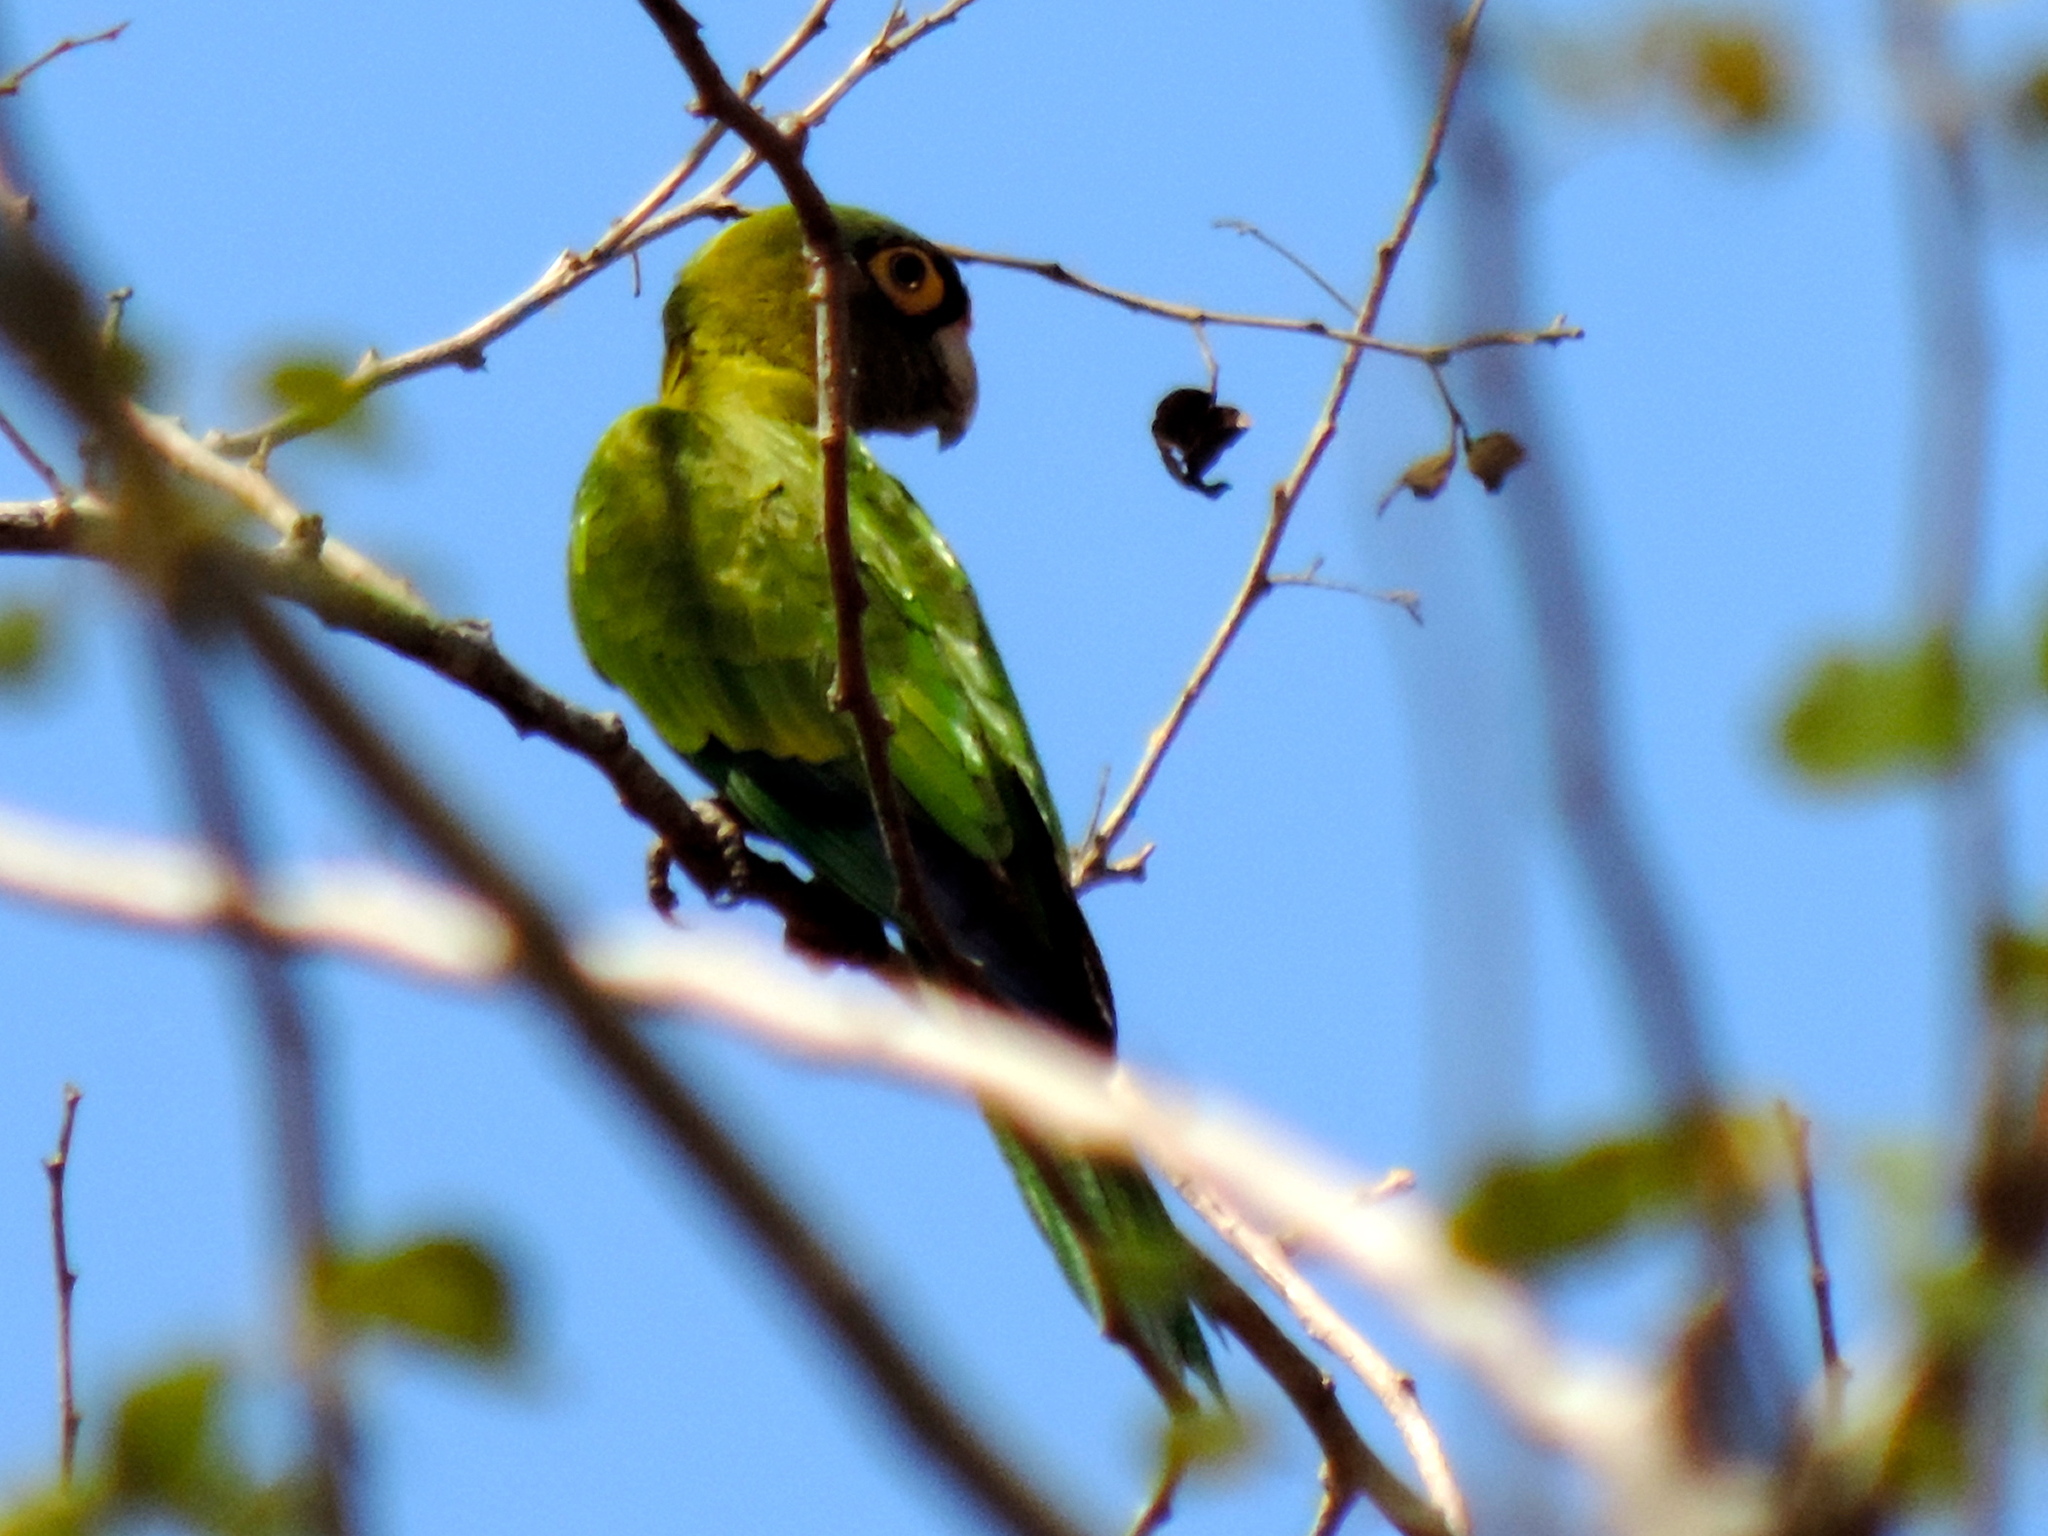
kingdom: Animalia
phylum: Chordata
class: Aves
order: Psittaciformes
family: Psittacidae
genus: Aratinga
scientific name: Aratinga canicularis
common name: Orange-fronted parakeet
